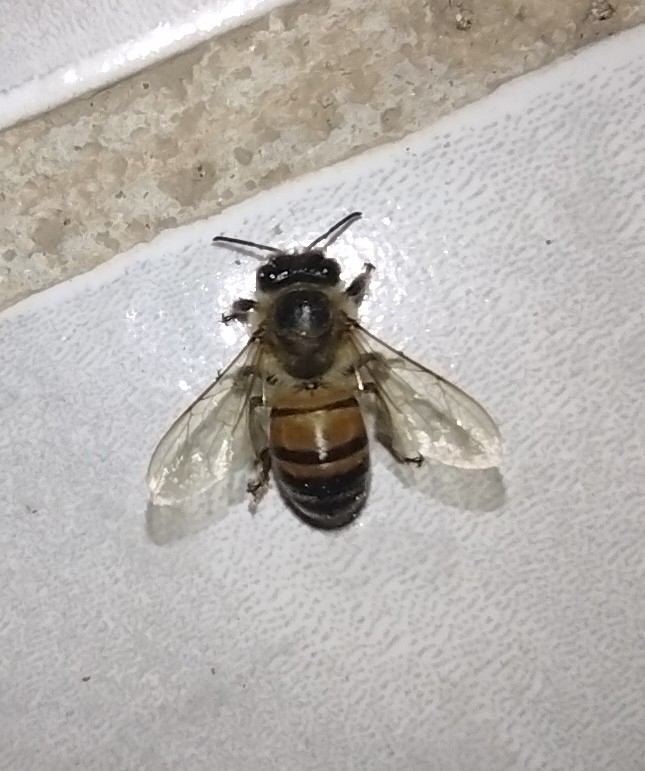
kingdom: Animalia
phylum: Arthropoda
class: Insecta
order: Hymenoptera
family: Apidae
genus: Apis
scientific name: Apis mellifera
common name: Honey bee
